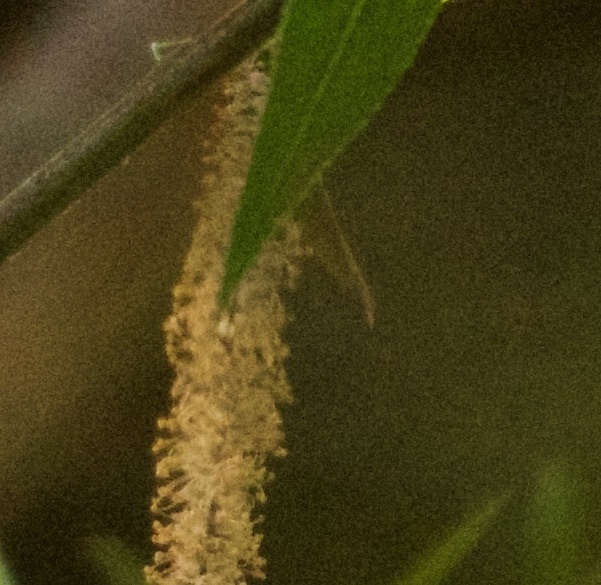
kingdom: Plantae
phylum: Tracheophyta
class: Magnoliopsida
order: Malpighiales
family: Salicaceae
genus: Salix
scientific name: Salix lasiolepis
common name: Arroyo willow
